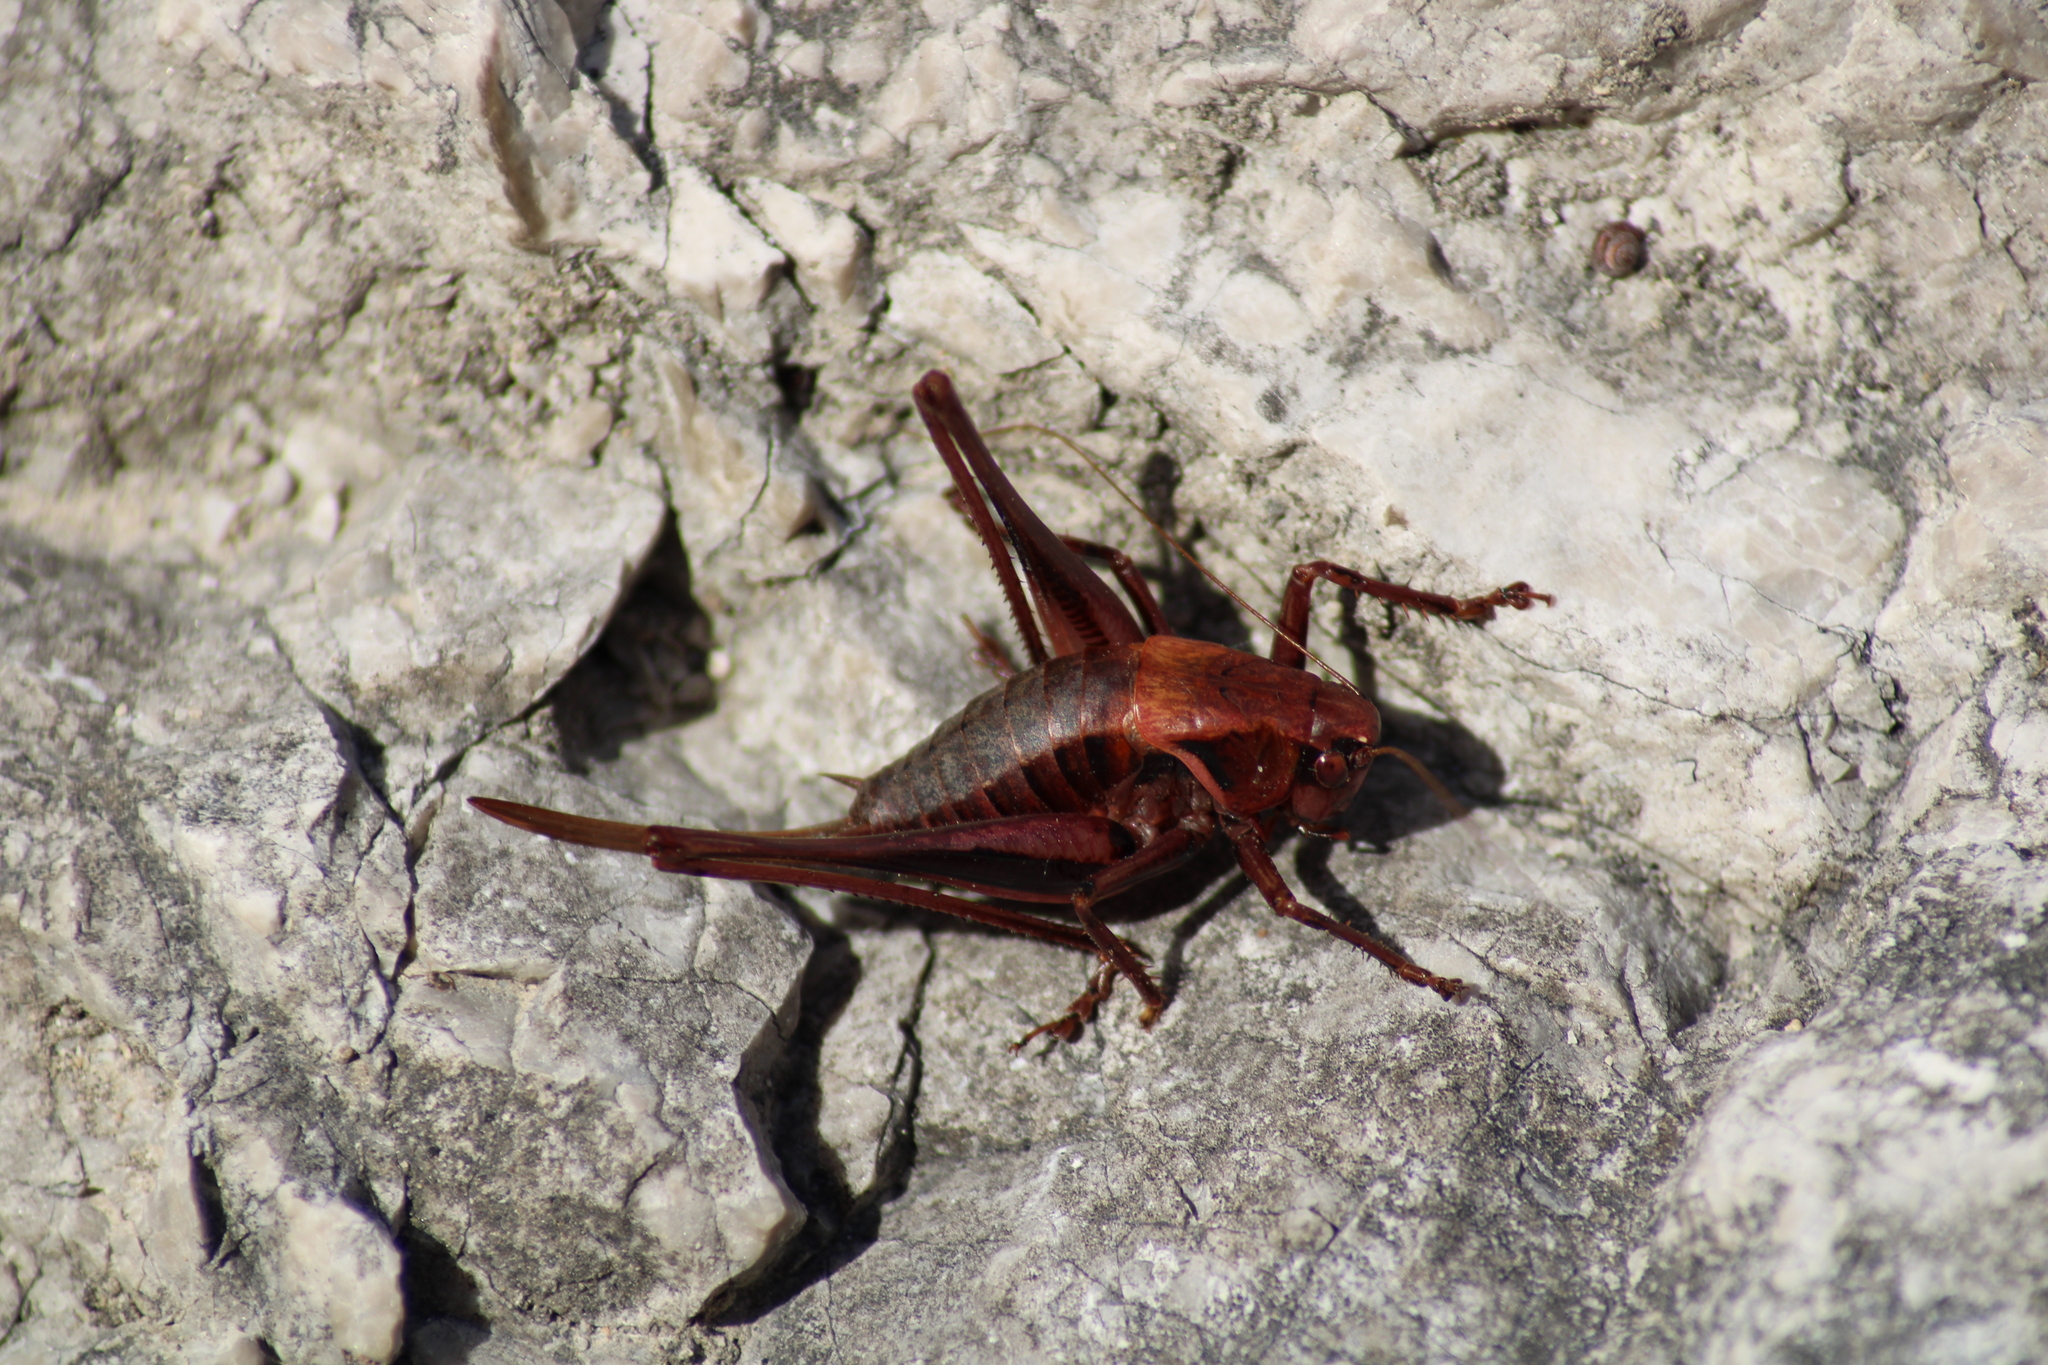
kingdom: Animalia
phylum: Arthropoda
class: Insecta
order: Orthoptera
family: Tettigoniidae
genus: Pholidoptera
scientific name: Pholidoptera aptera
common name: Alpine dark bush-cricket
